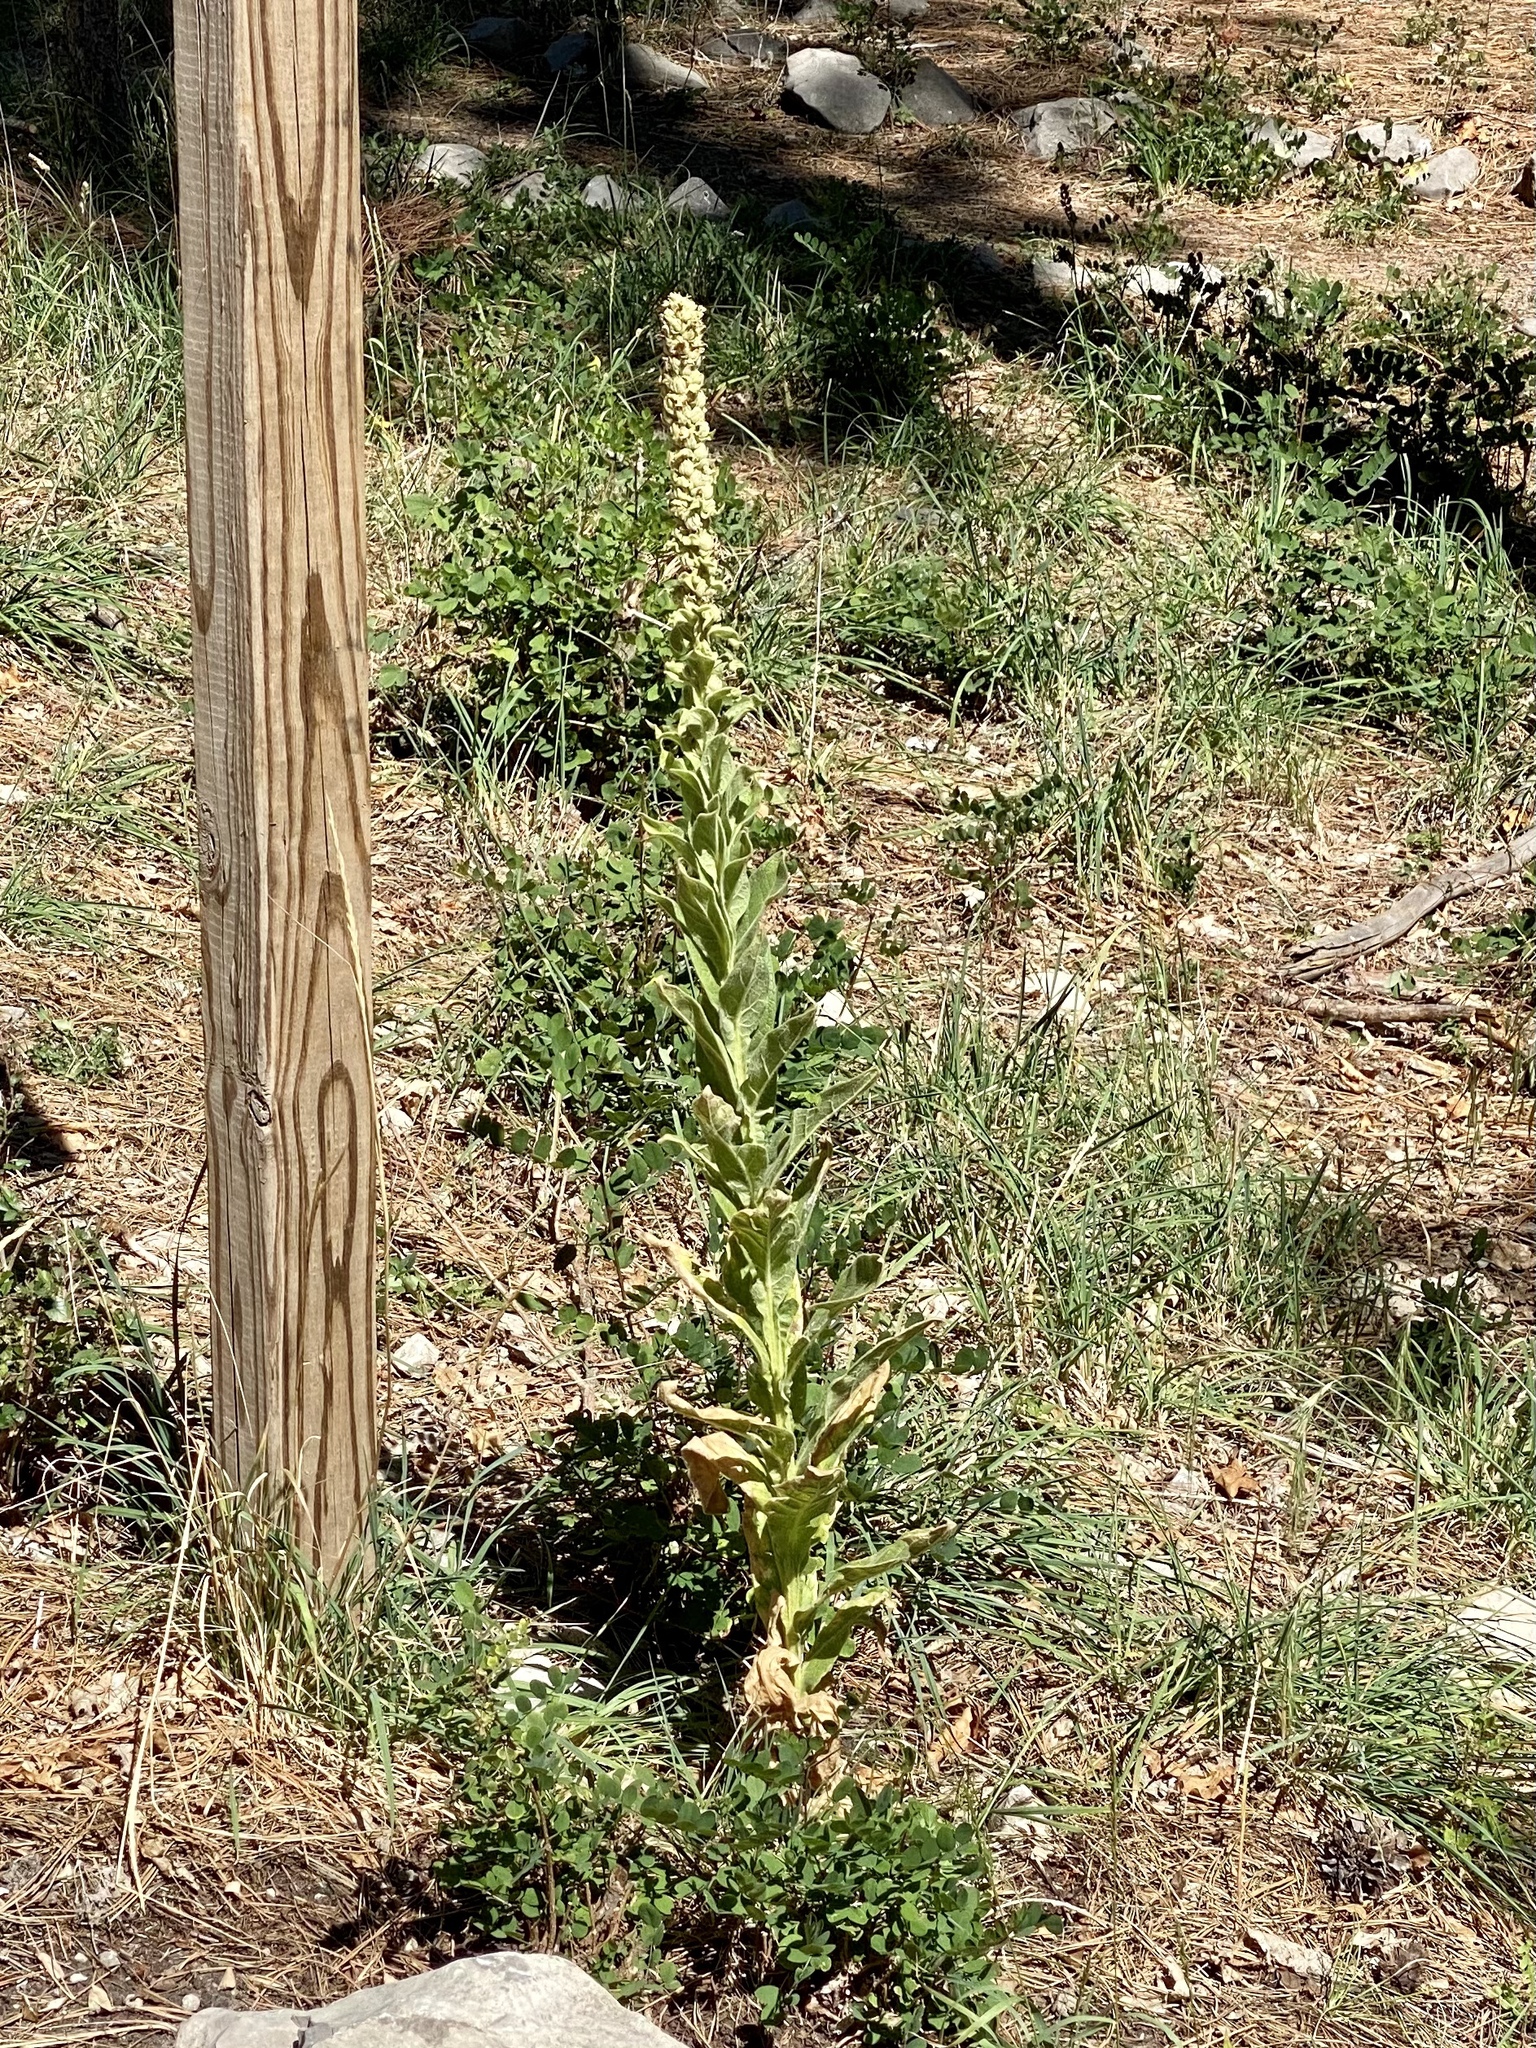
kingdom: Plantae
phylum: Tracheophyta
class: Magnoliopsida
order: Lamiales
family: Scrophulariaceae
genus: Verbascum
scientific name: Verbascum thapsus
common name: Common mullein
